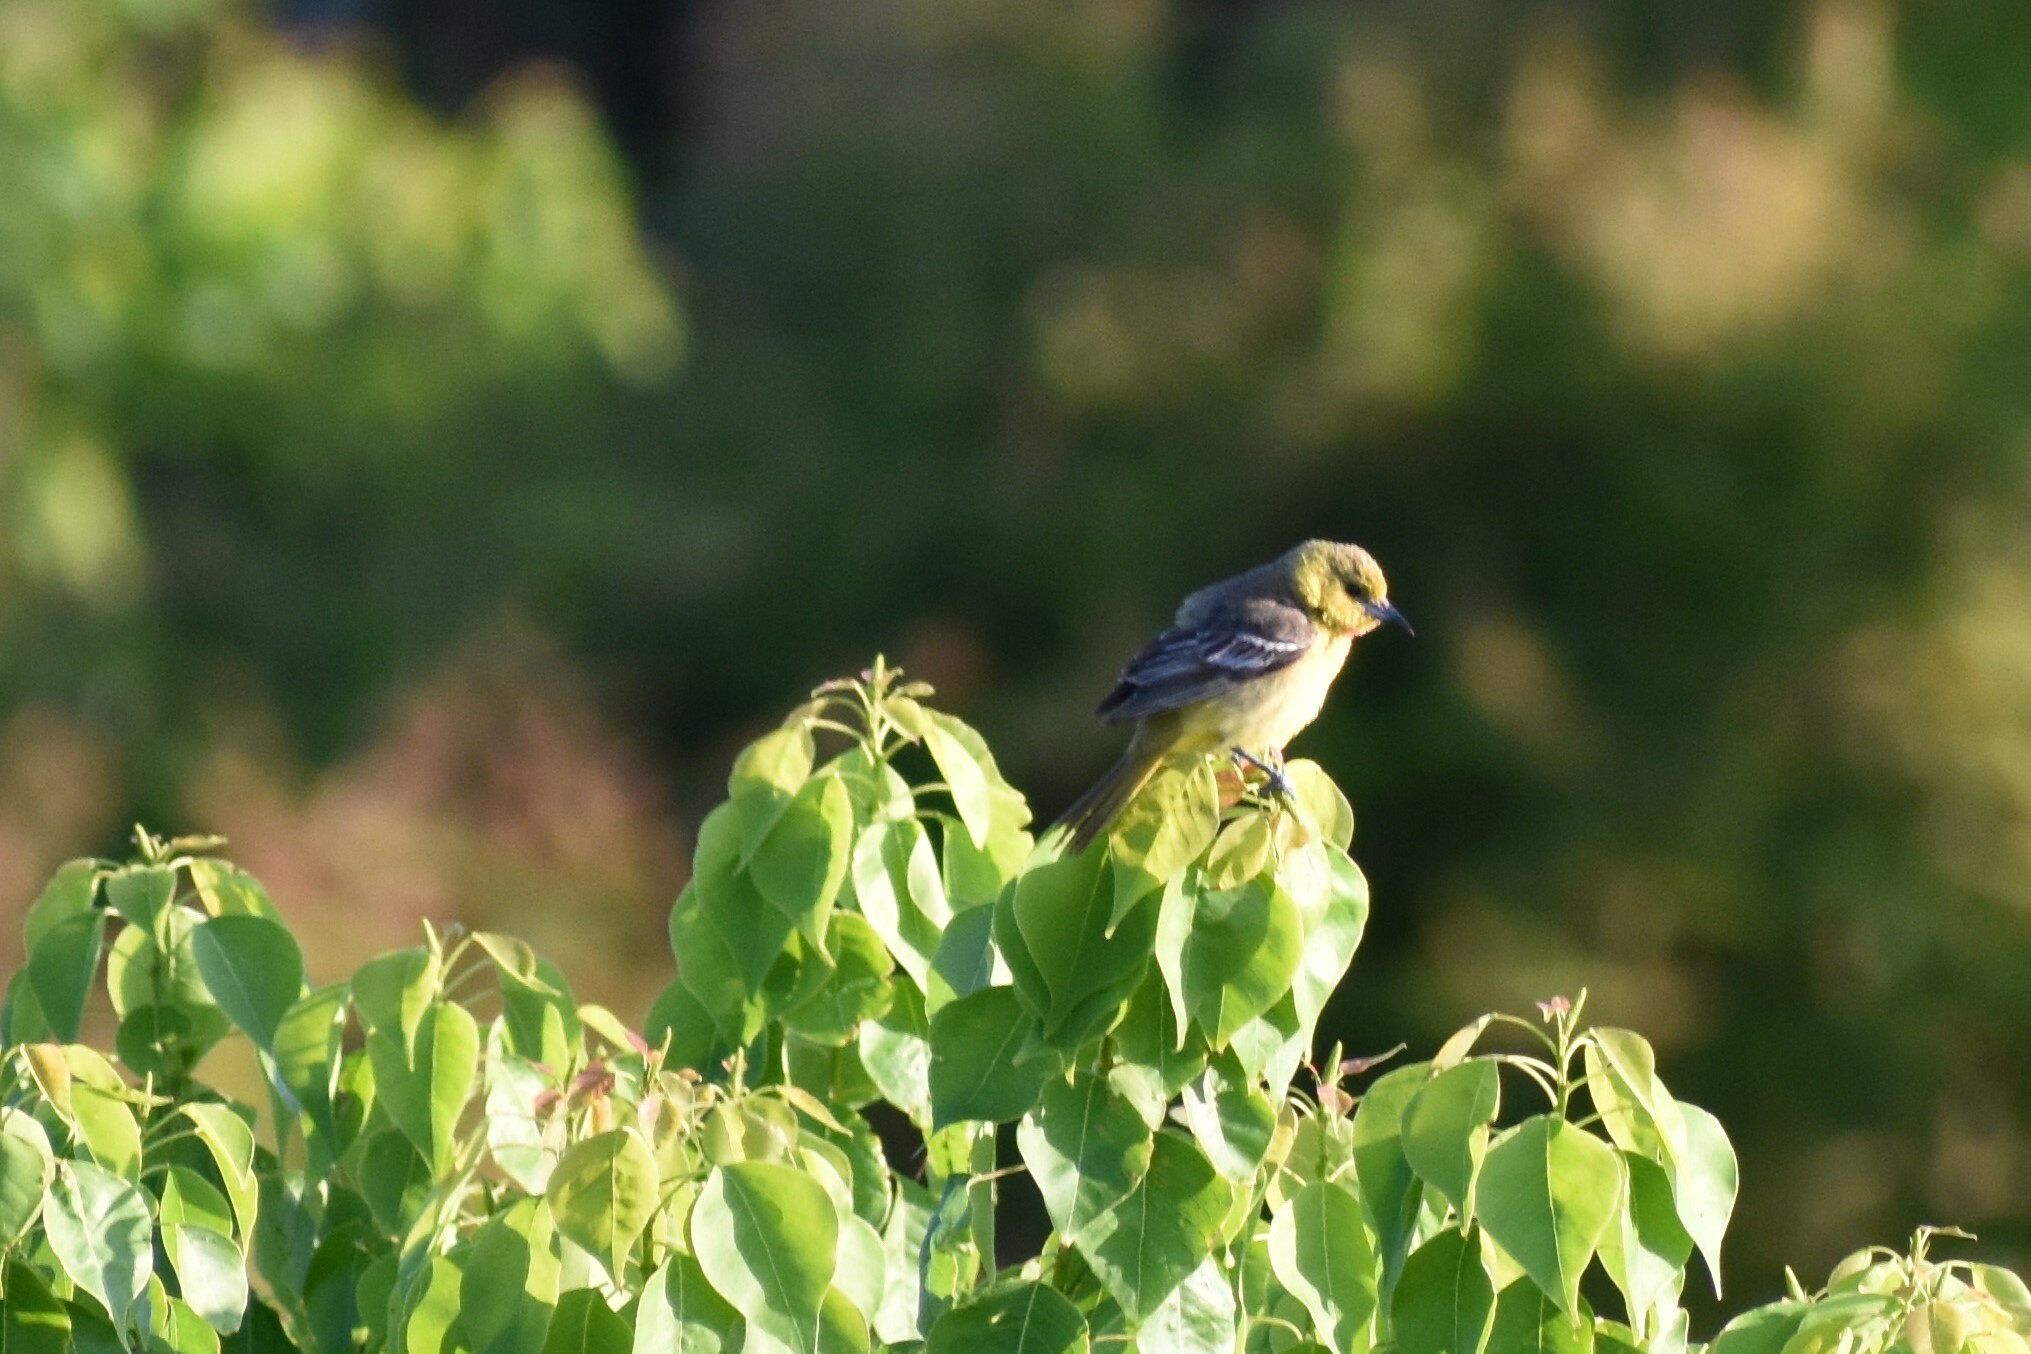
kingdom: Animalia
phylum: Chordata
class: Aves
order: Passeriformes
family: Icteridae
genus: Icterus
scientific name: Icterus spurius
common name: Orchard oriole
